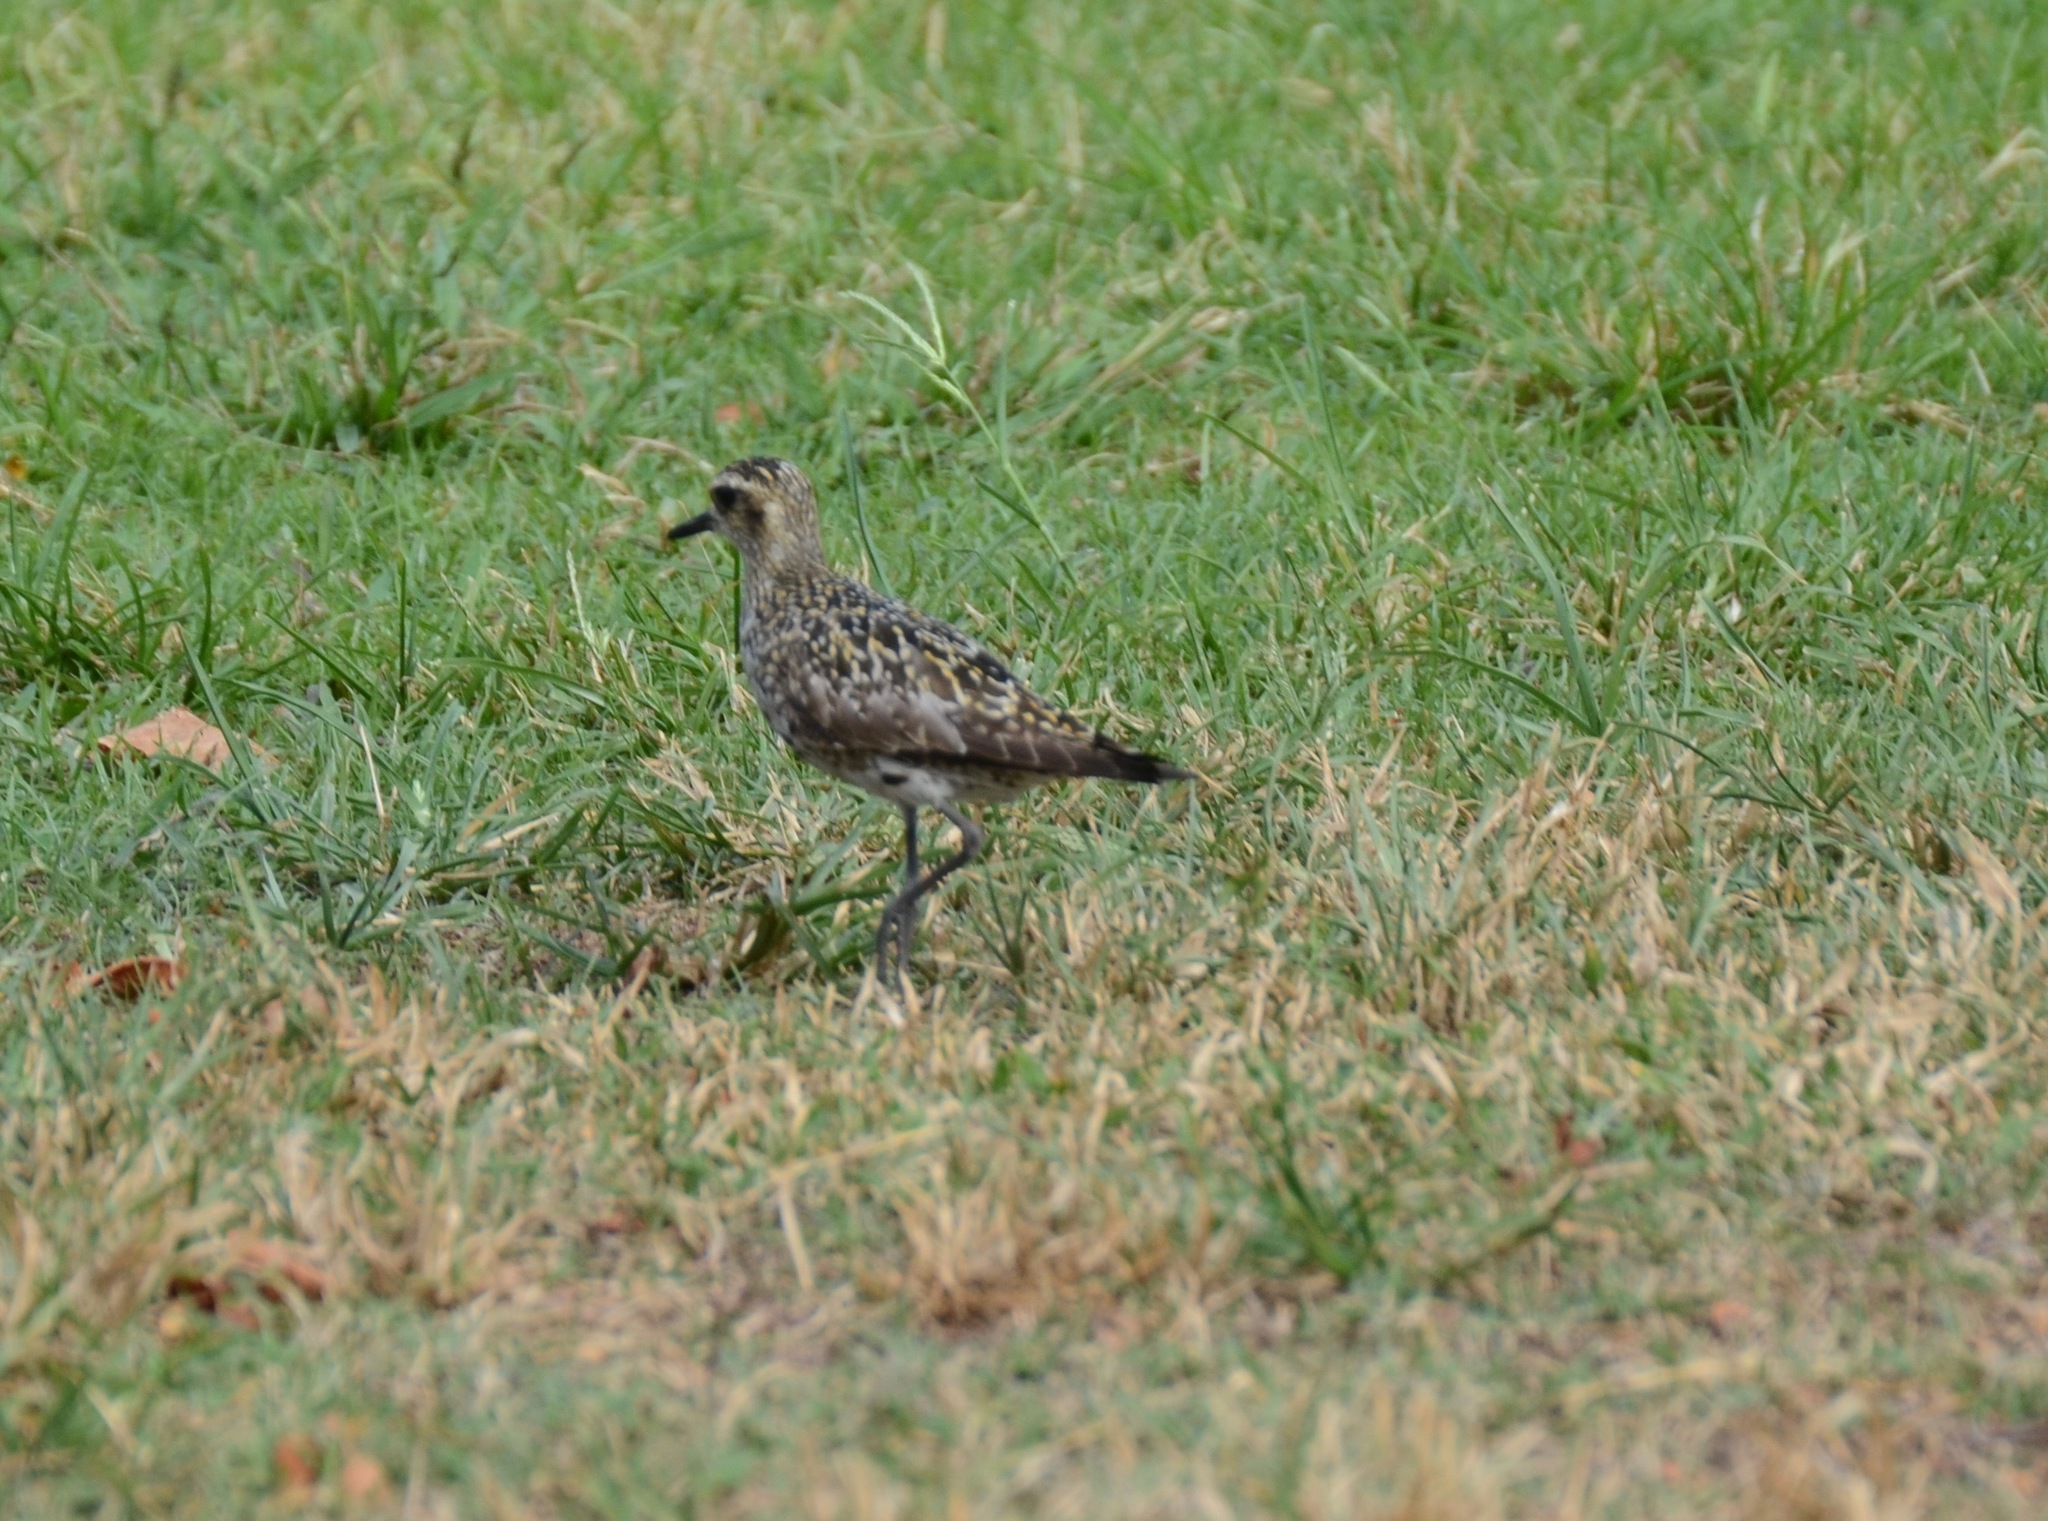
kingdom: Animalia
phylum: Chordata
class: Aves
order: Charadriiformes
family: Charadriidae
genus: Pluvialis
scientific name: Pluvialis fulva
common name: Pacific golden plover
